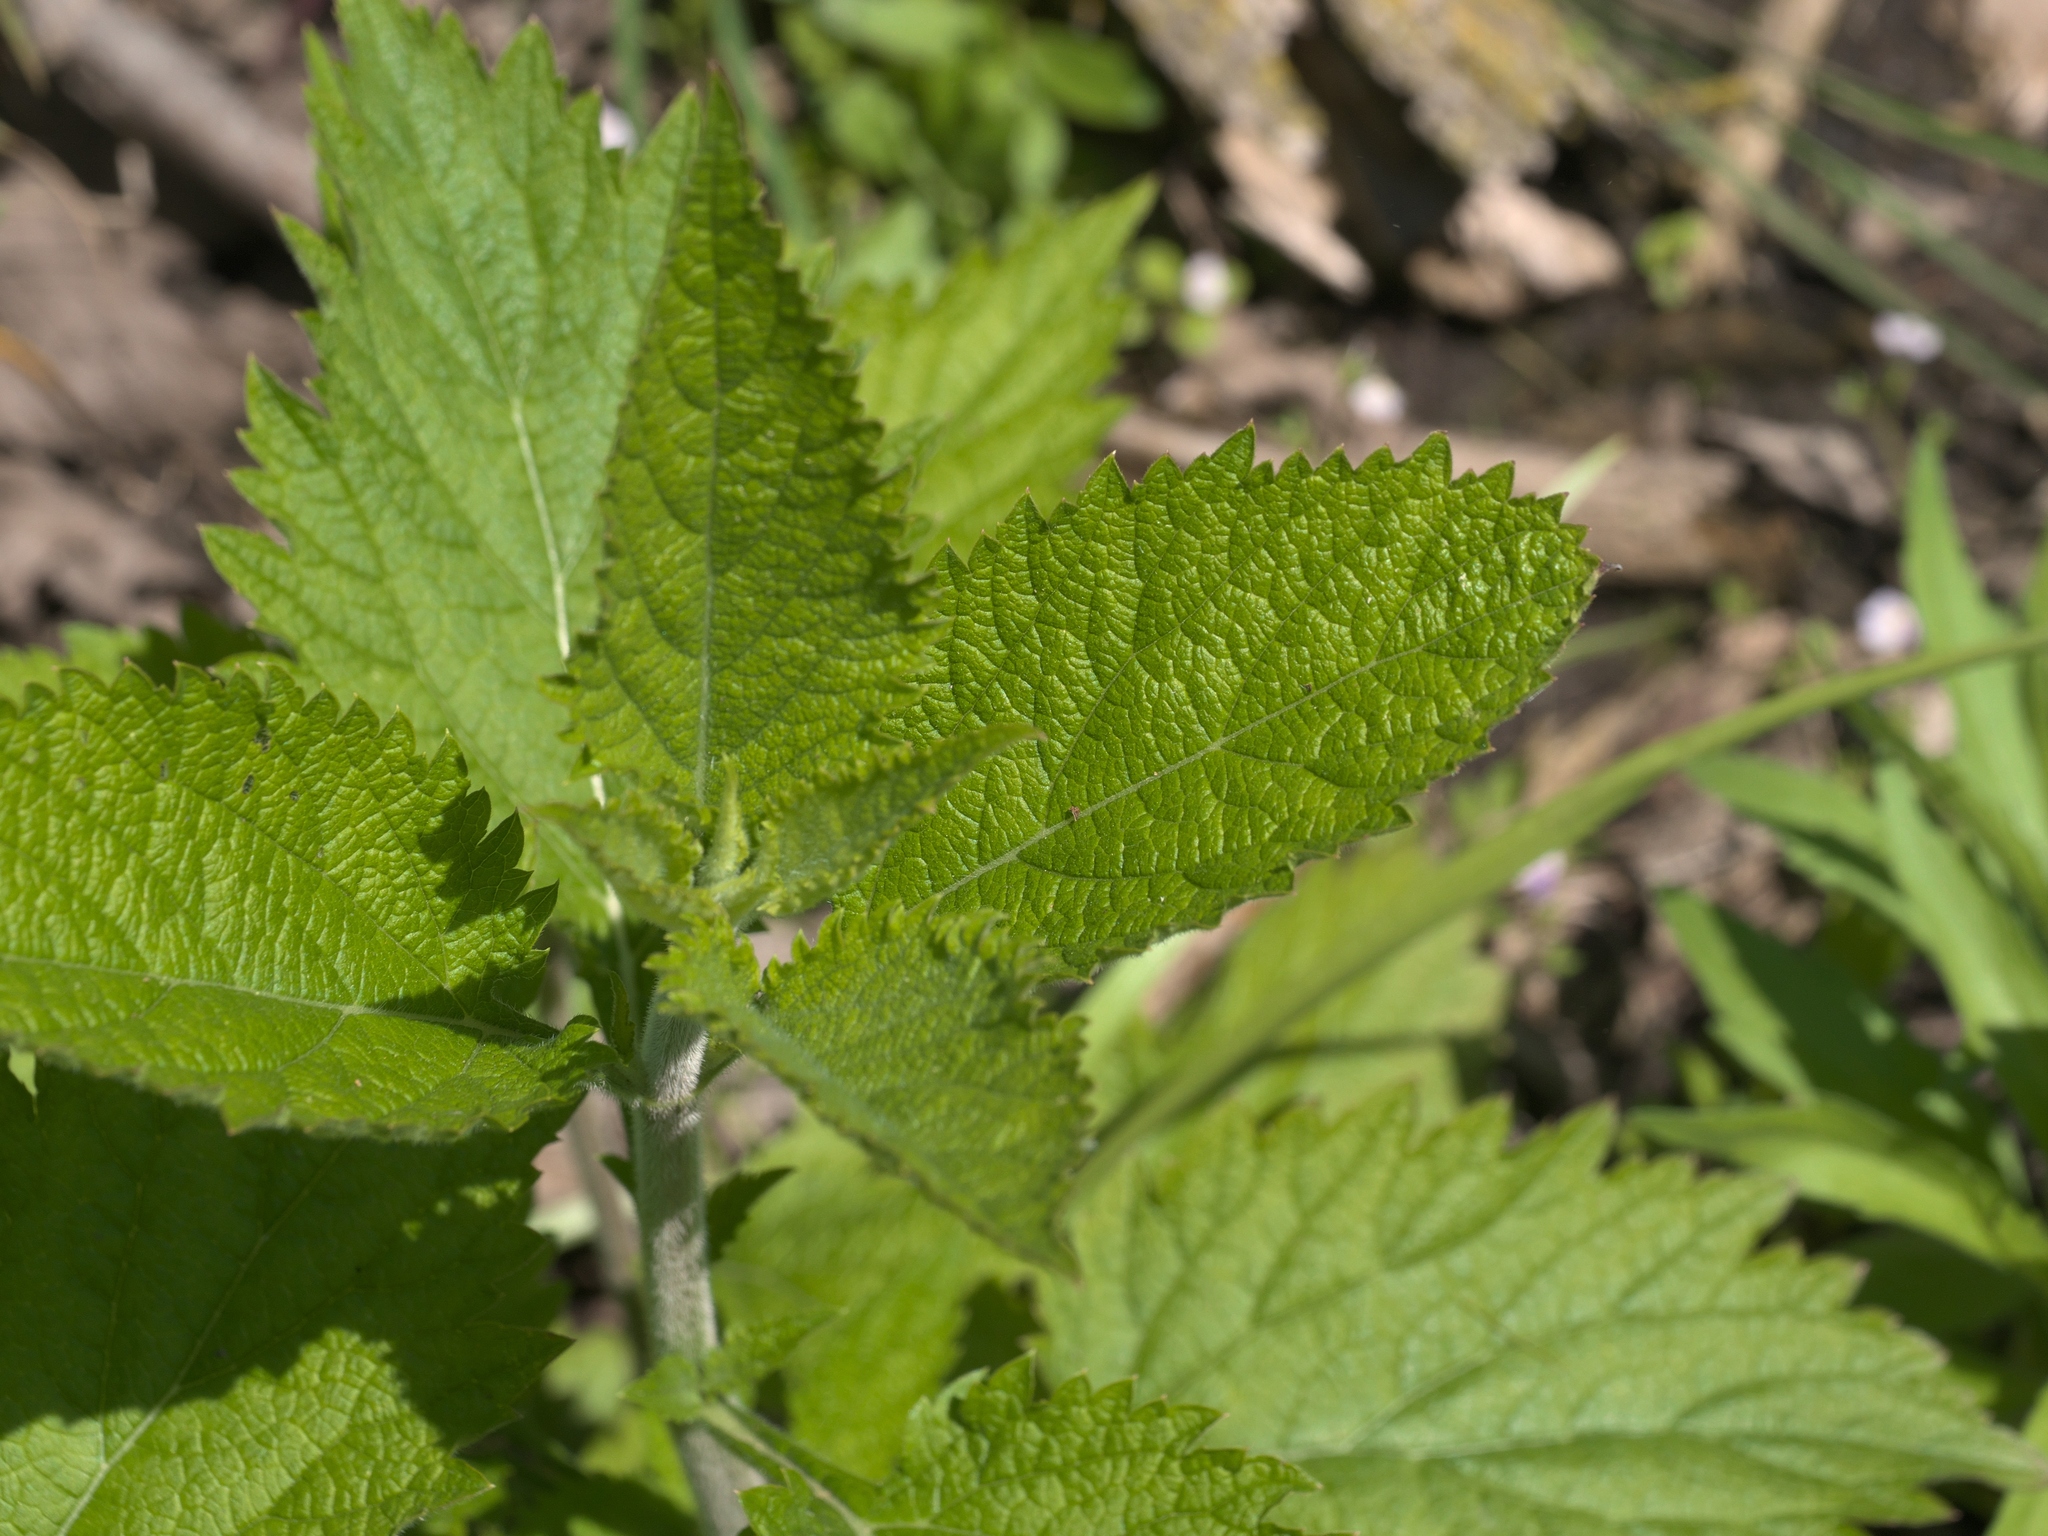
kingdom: Plantae
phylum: Tracheophyta
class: Magnoliopsida
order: Lamiales
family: Verbenaceae
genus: Verbena
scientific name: Verbena urticifolia
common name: Nettle-leaved vervain
